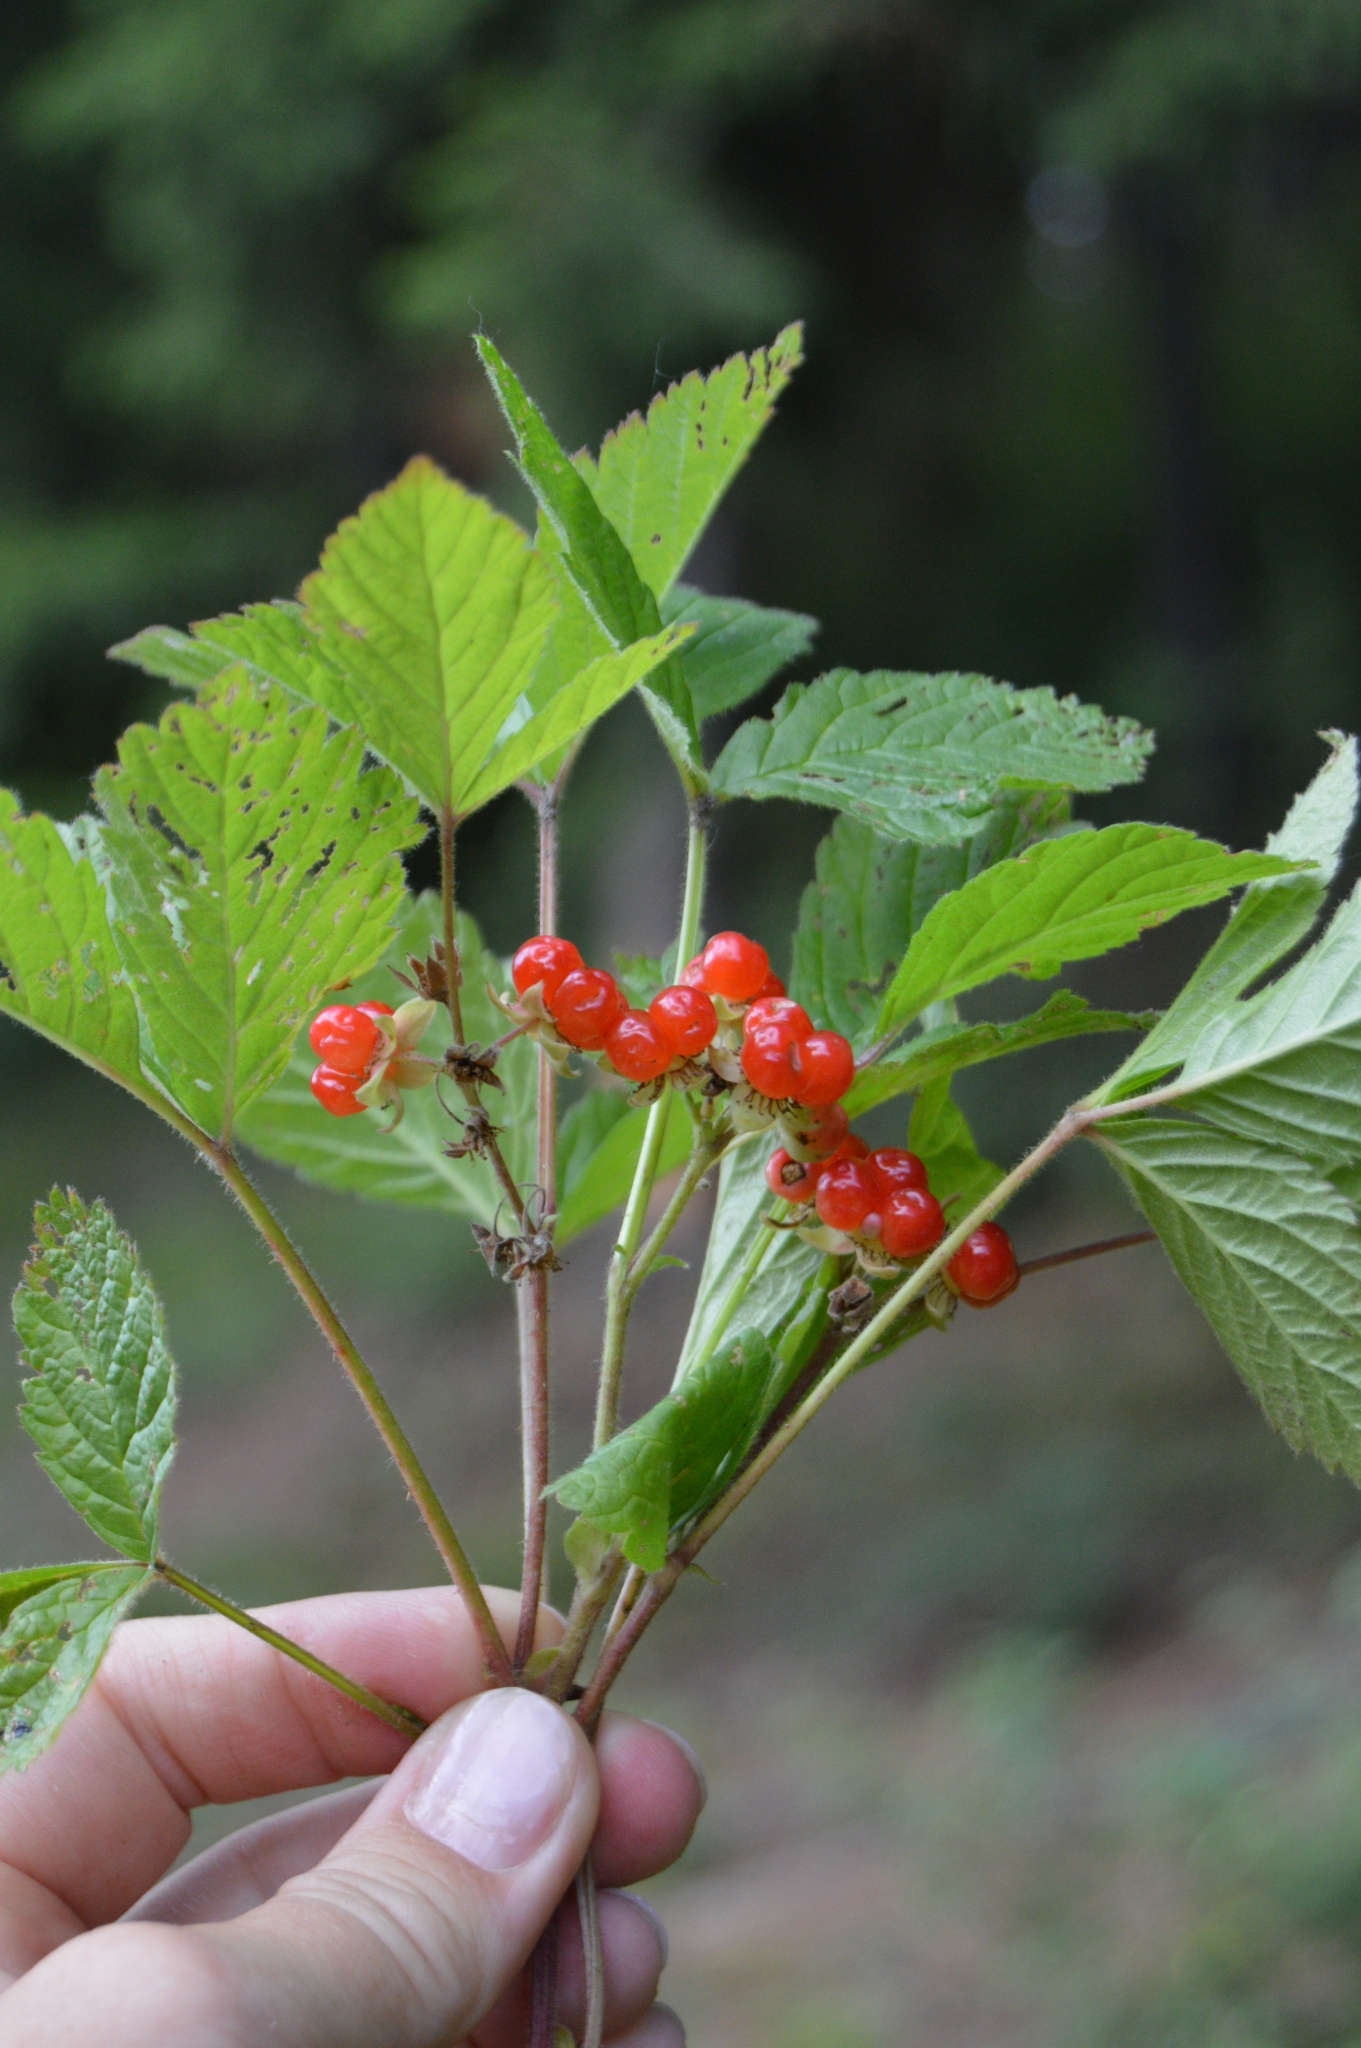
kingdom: Plantae
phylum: Tracheophyta
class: Magnoliopsida
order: Rosales
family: Rosaceae
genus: Rubus
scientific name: Rubus saxatilis
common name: Stone bramble
